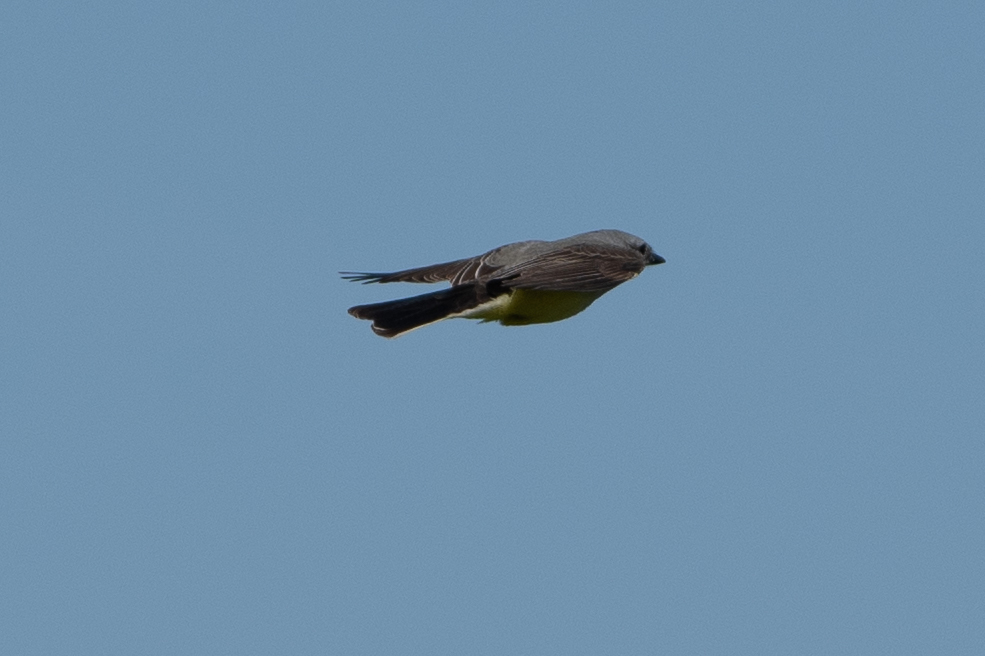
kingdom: Animalia
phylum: Chordata
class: Aves
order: Passeriformes
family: Tyrannidae
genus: Tyrannus
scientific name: Tyrannus verticalis
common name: Western kingbird
